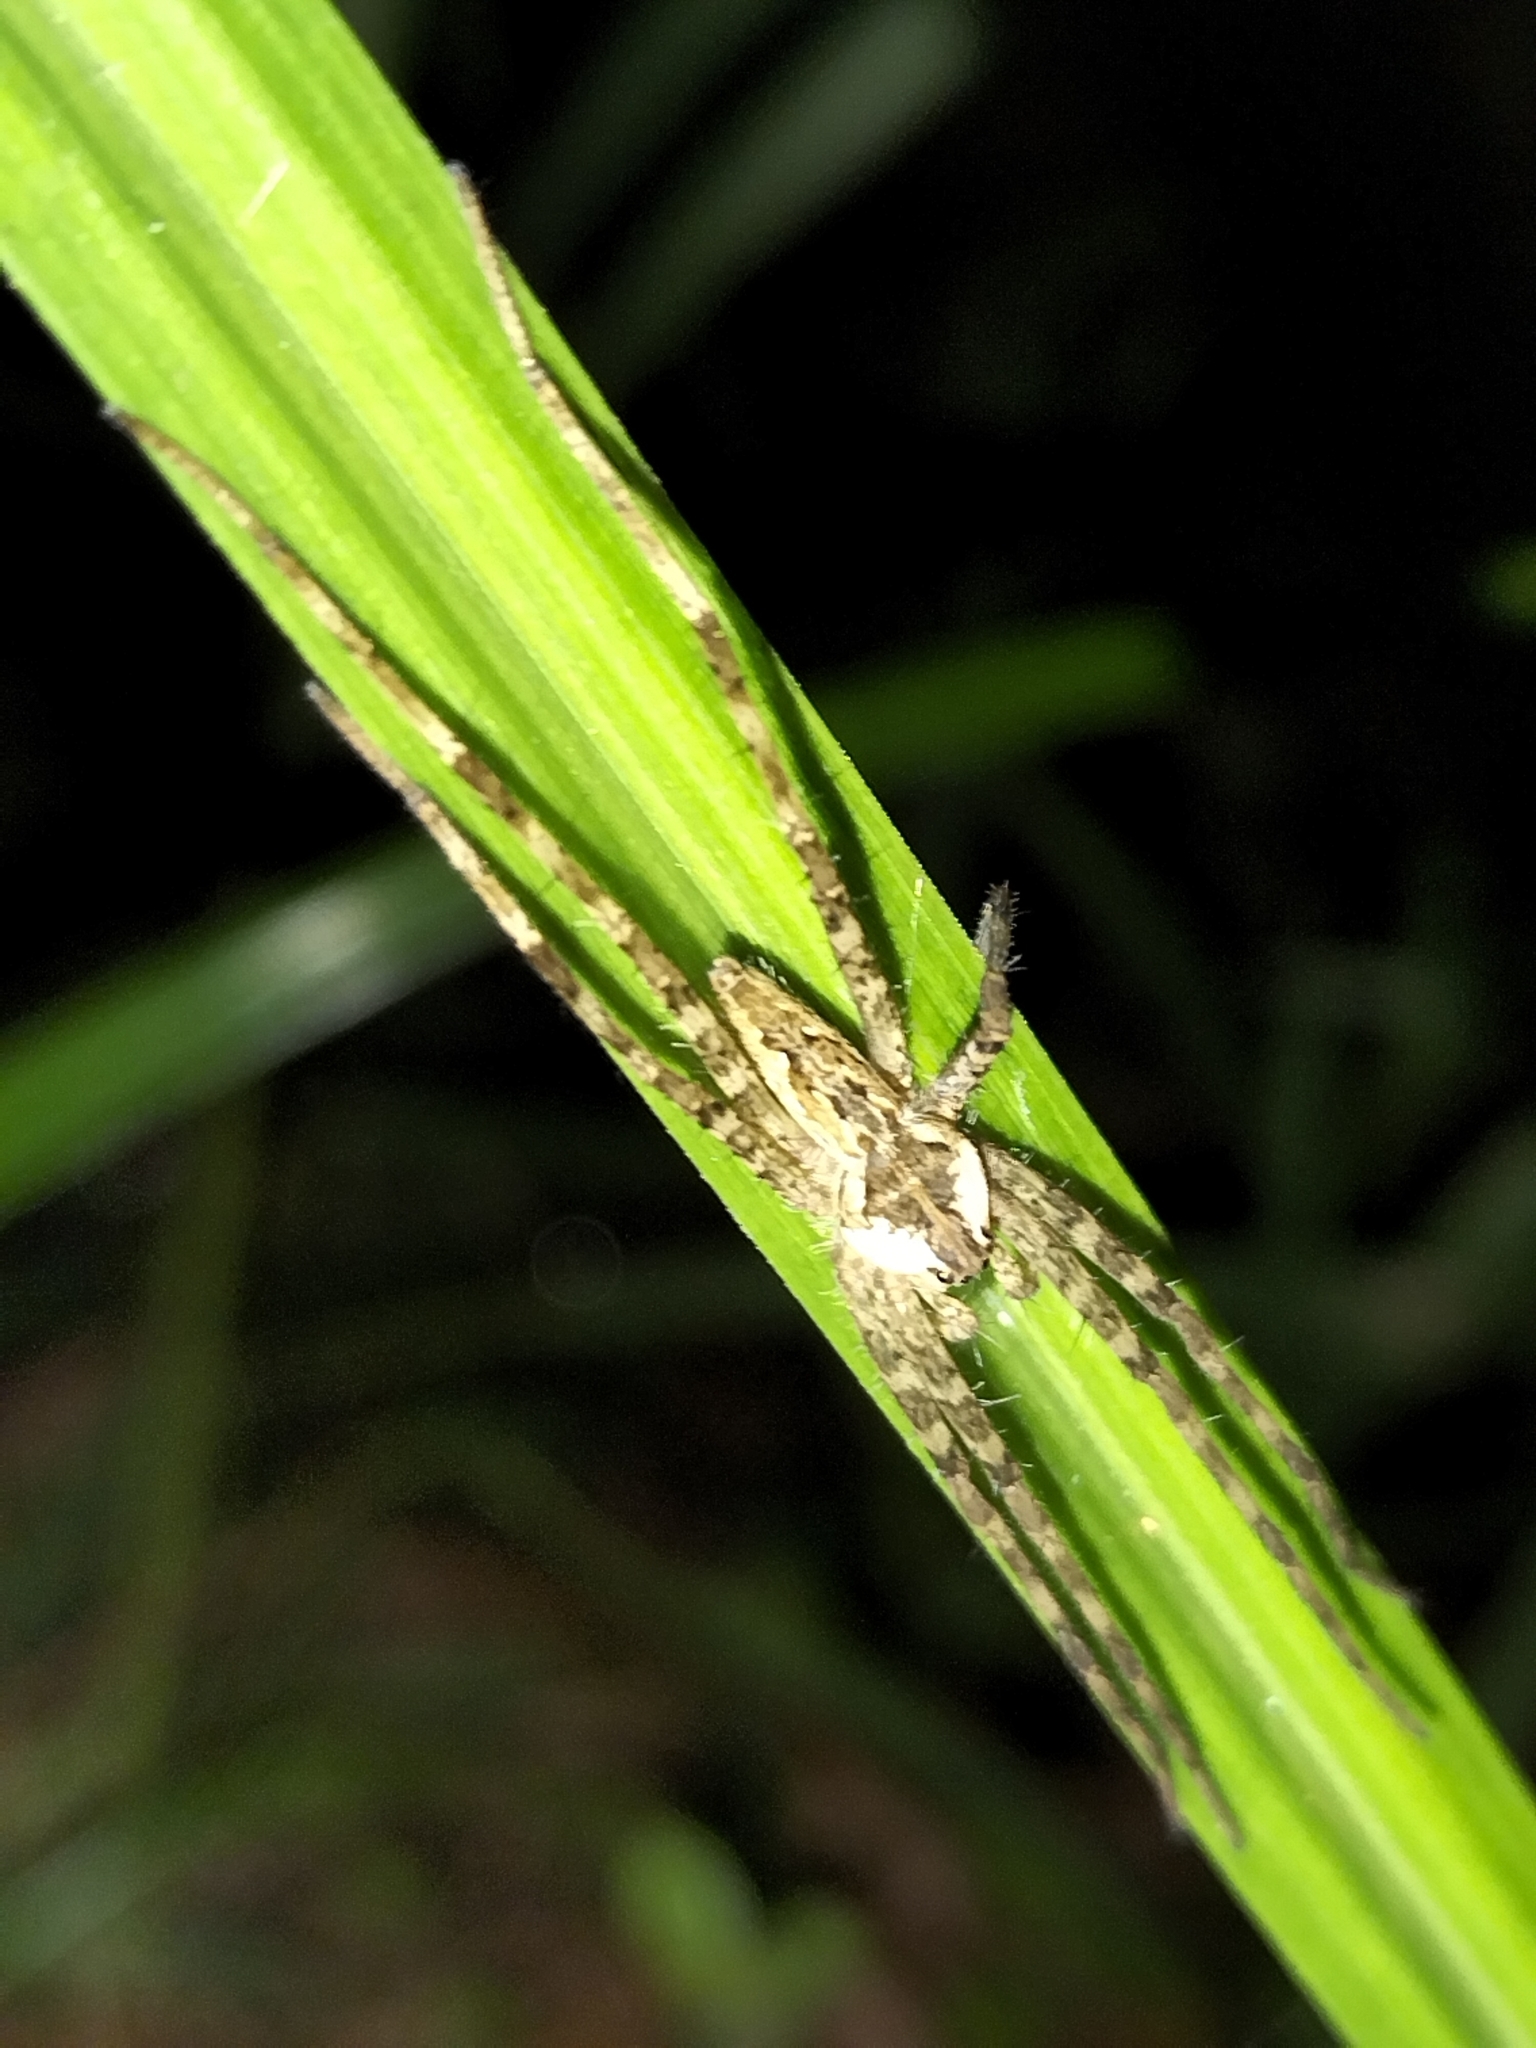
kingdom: Animalia
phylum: Arthropoda
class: Arachnida
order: Araneae
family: Pisauridae
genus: Megadolomedes
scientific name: Megadolomedes trux
